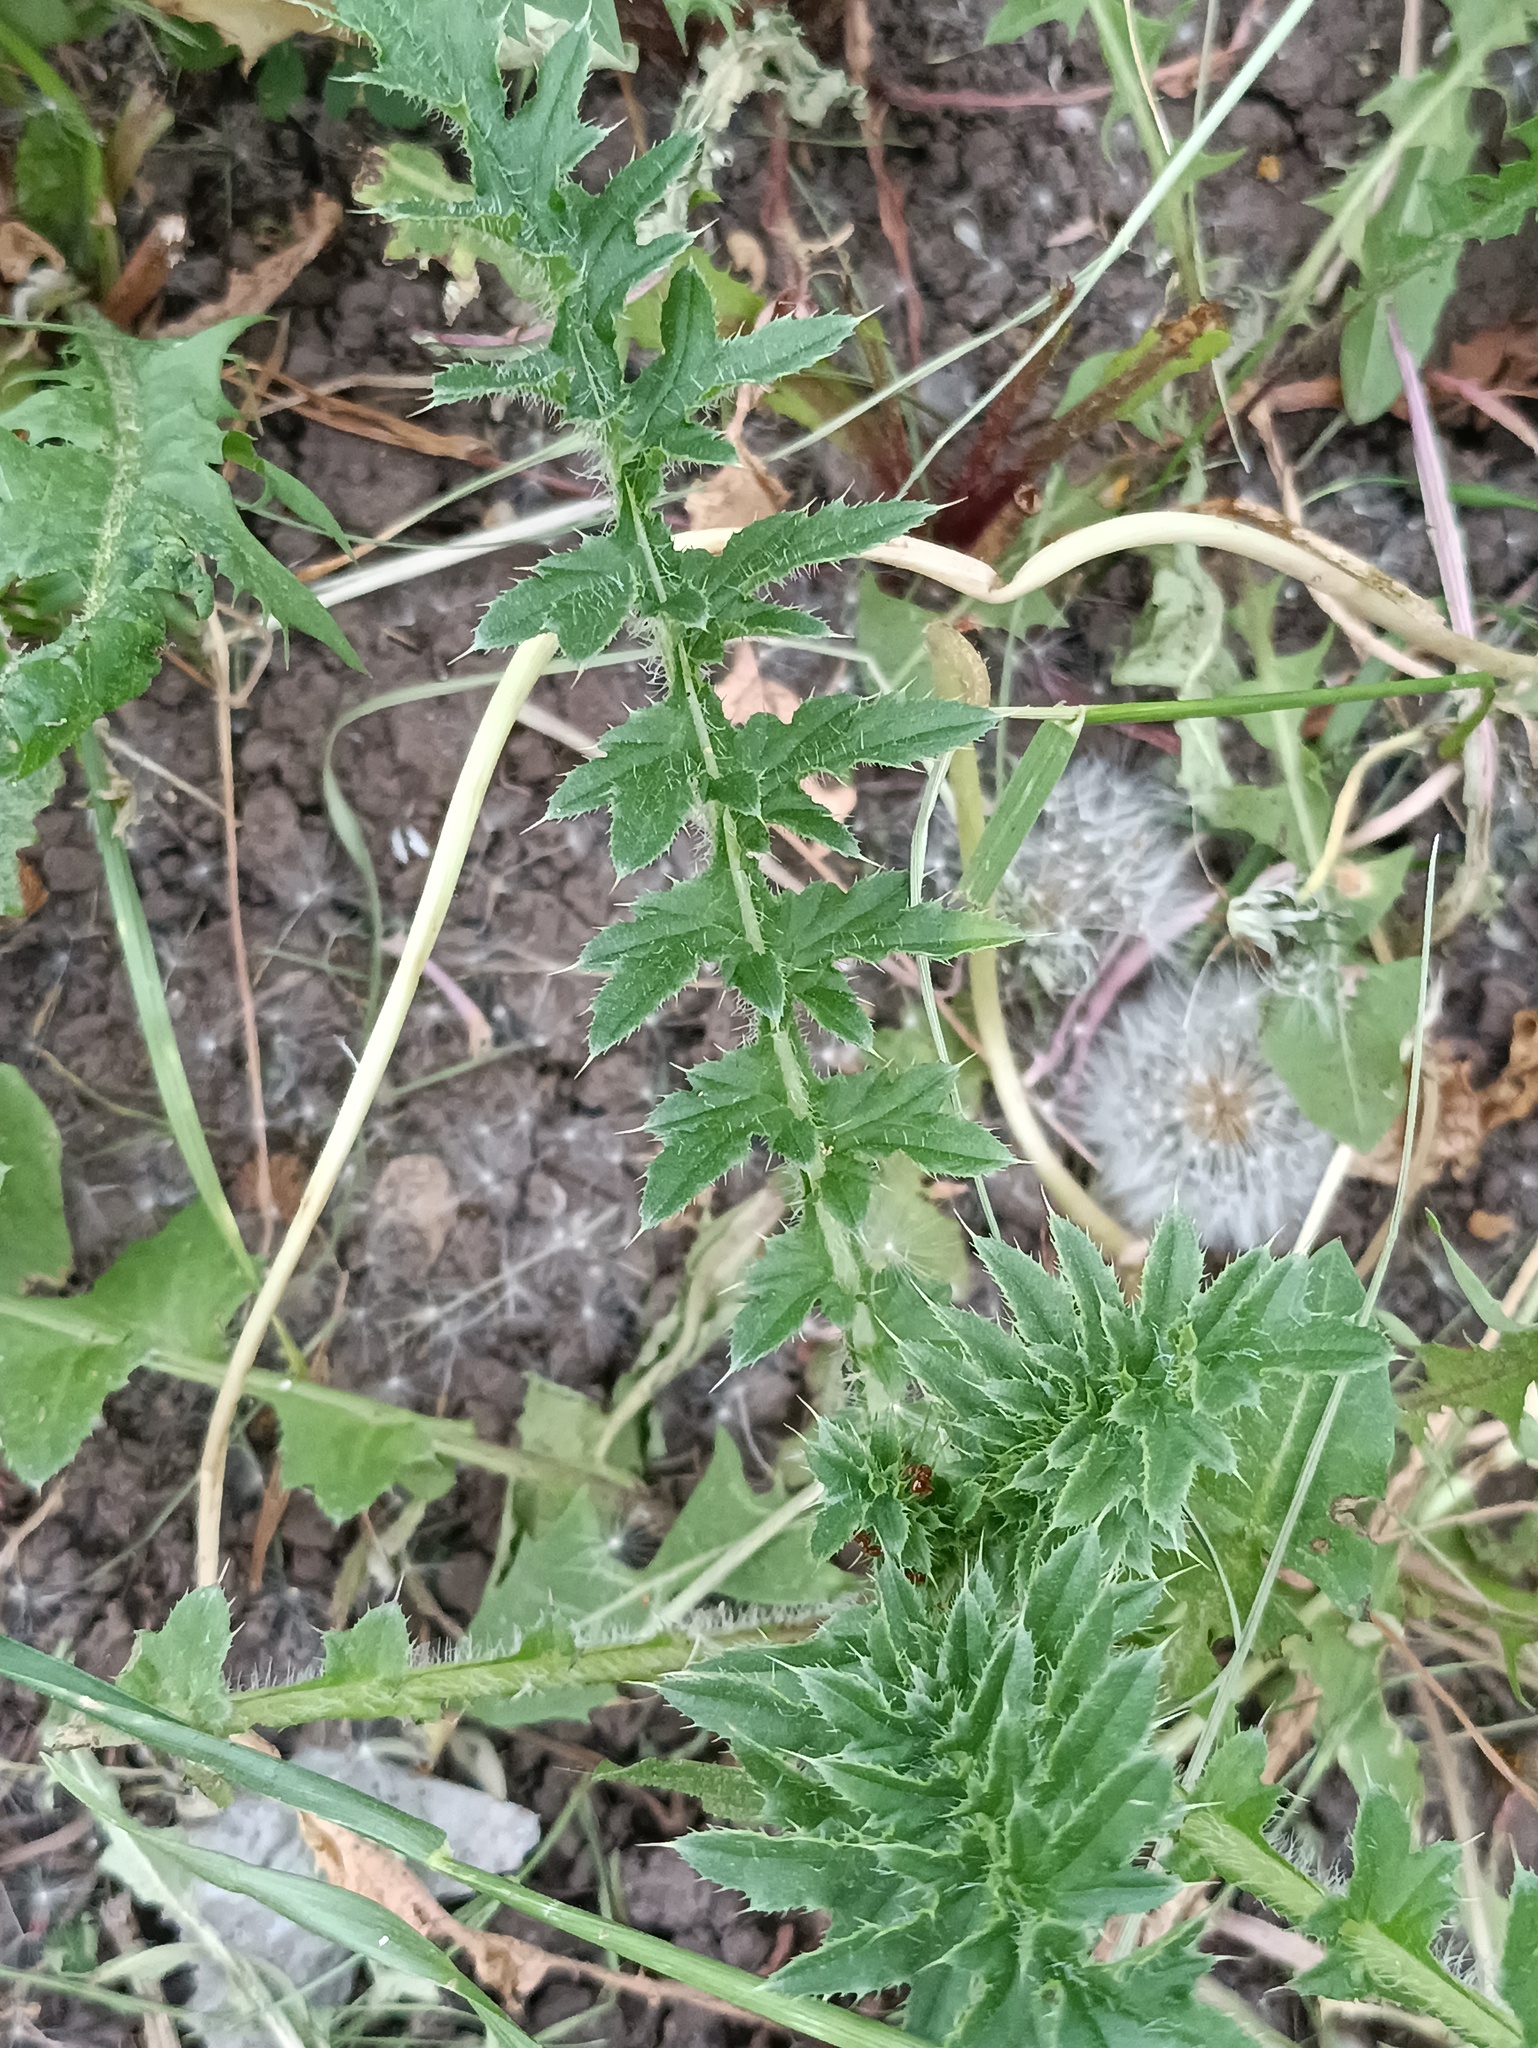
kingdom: Plantae
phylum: Tracheophyta
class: Magnoliopsida
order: Asterales
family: Asteraceae
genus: Carduus
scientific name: Carduus acanthoides
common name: Plumeless thistle
